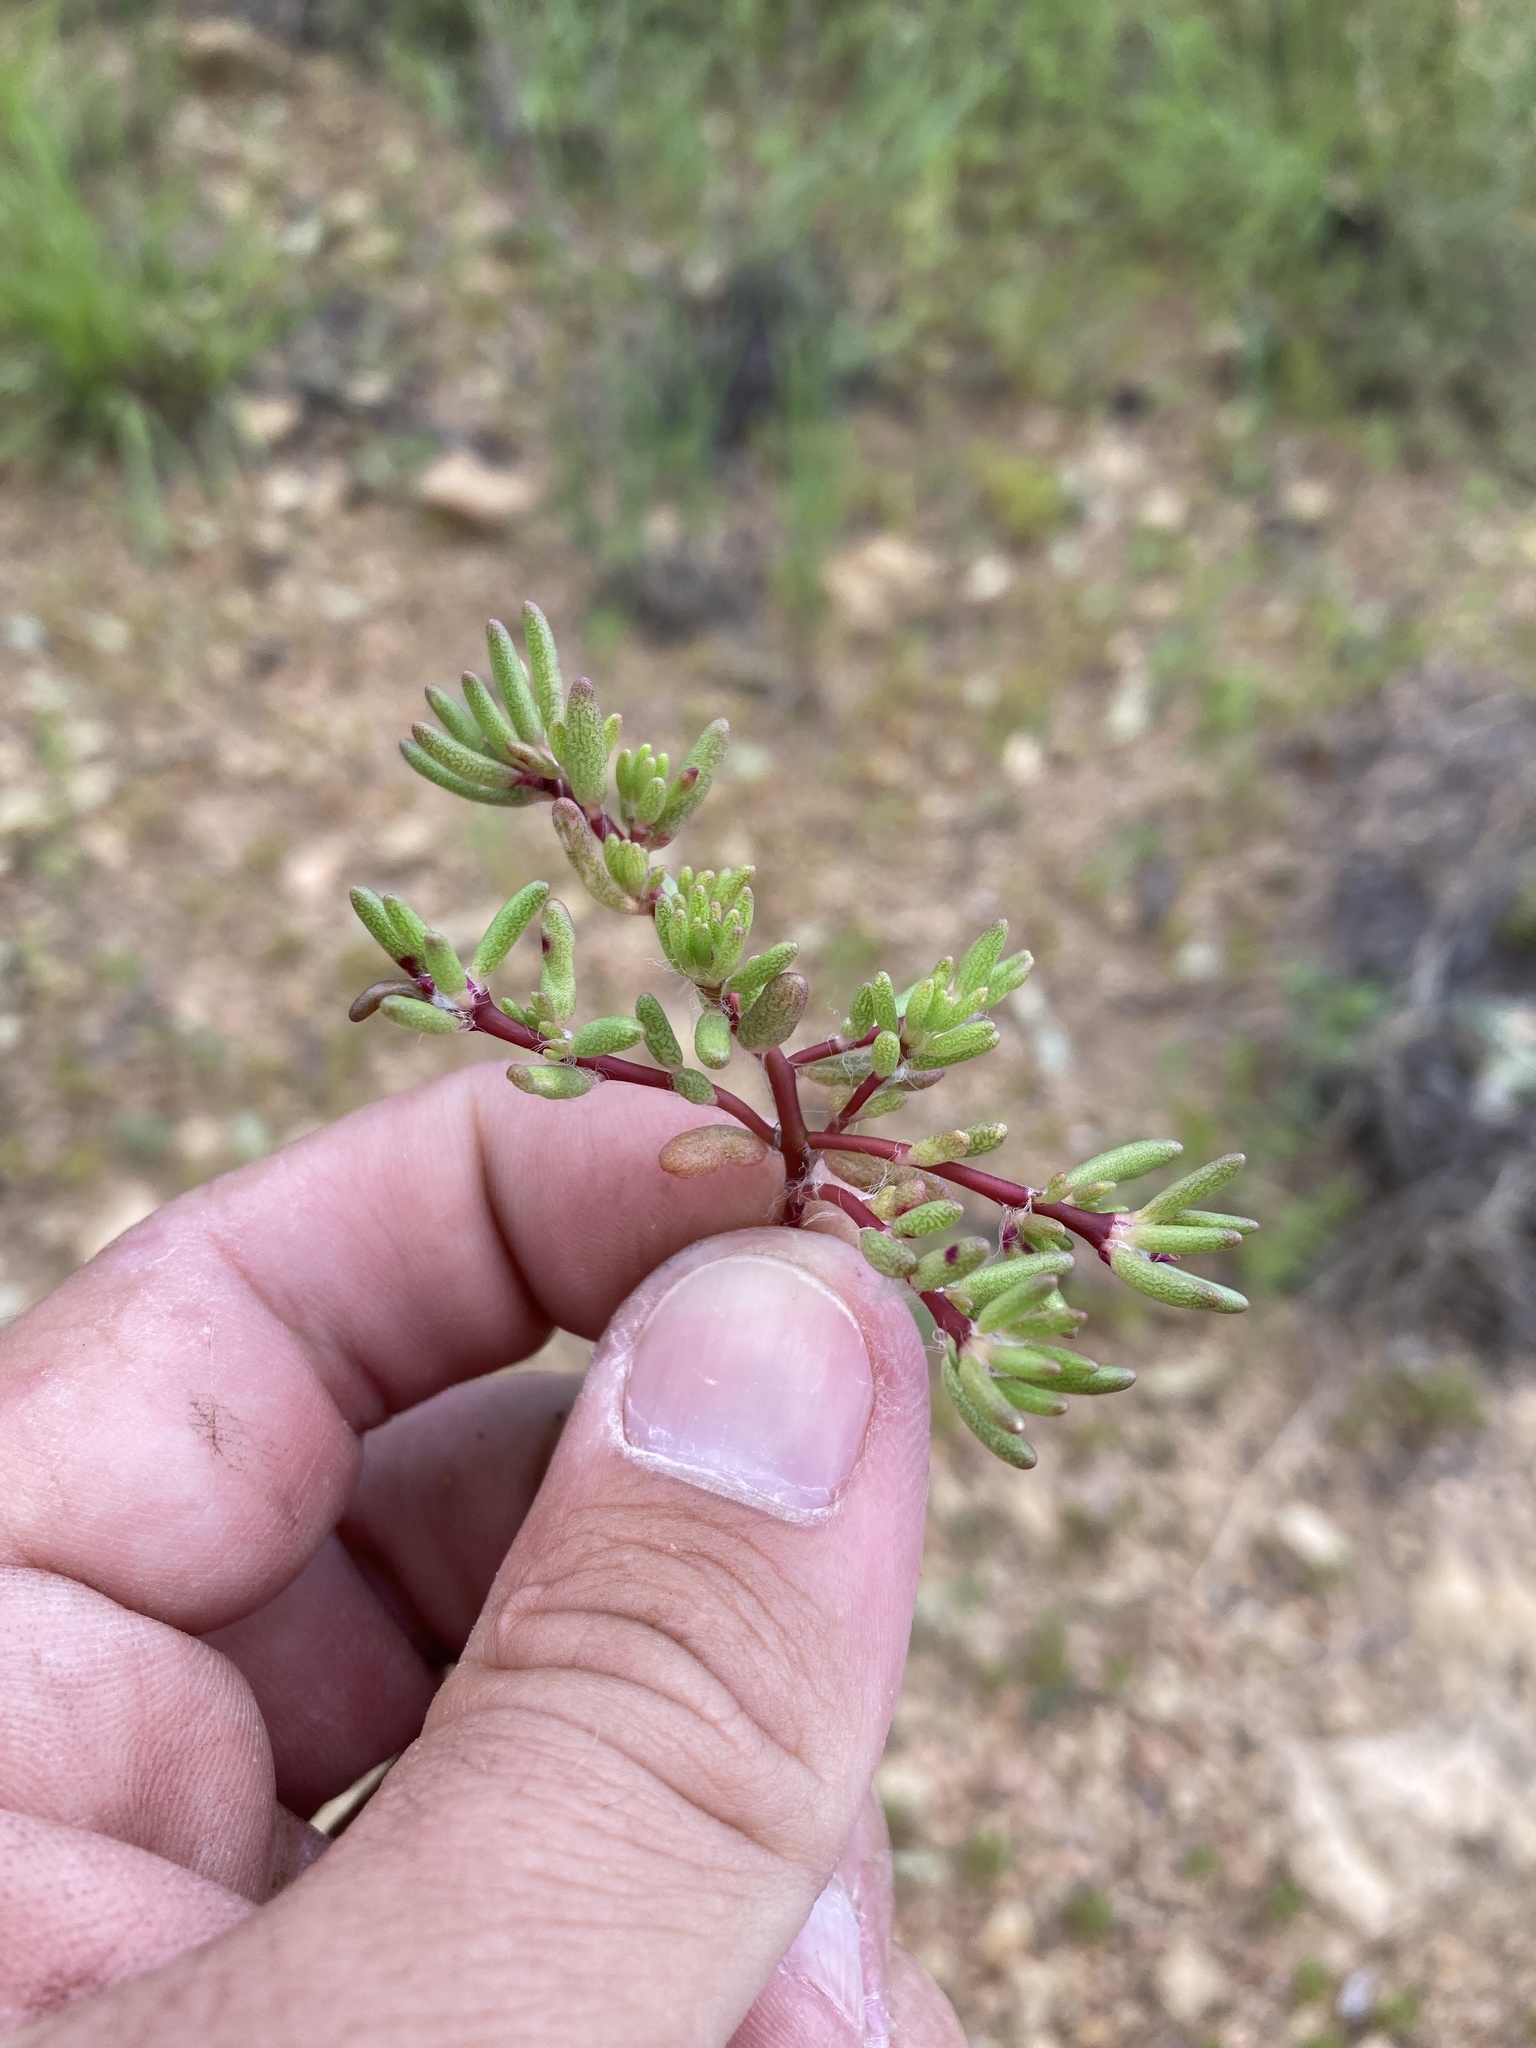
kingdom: Plantae
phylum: Tracheophyta
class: Magnoliopsida
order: Caryophyllales
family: Portulacaceae
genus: Portulaca
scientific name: Portulaca pilosa
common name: Kiss me quick
